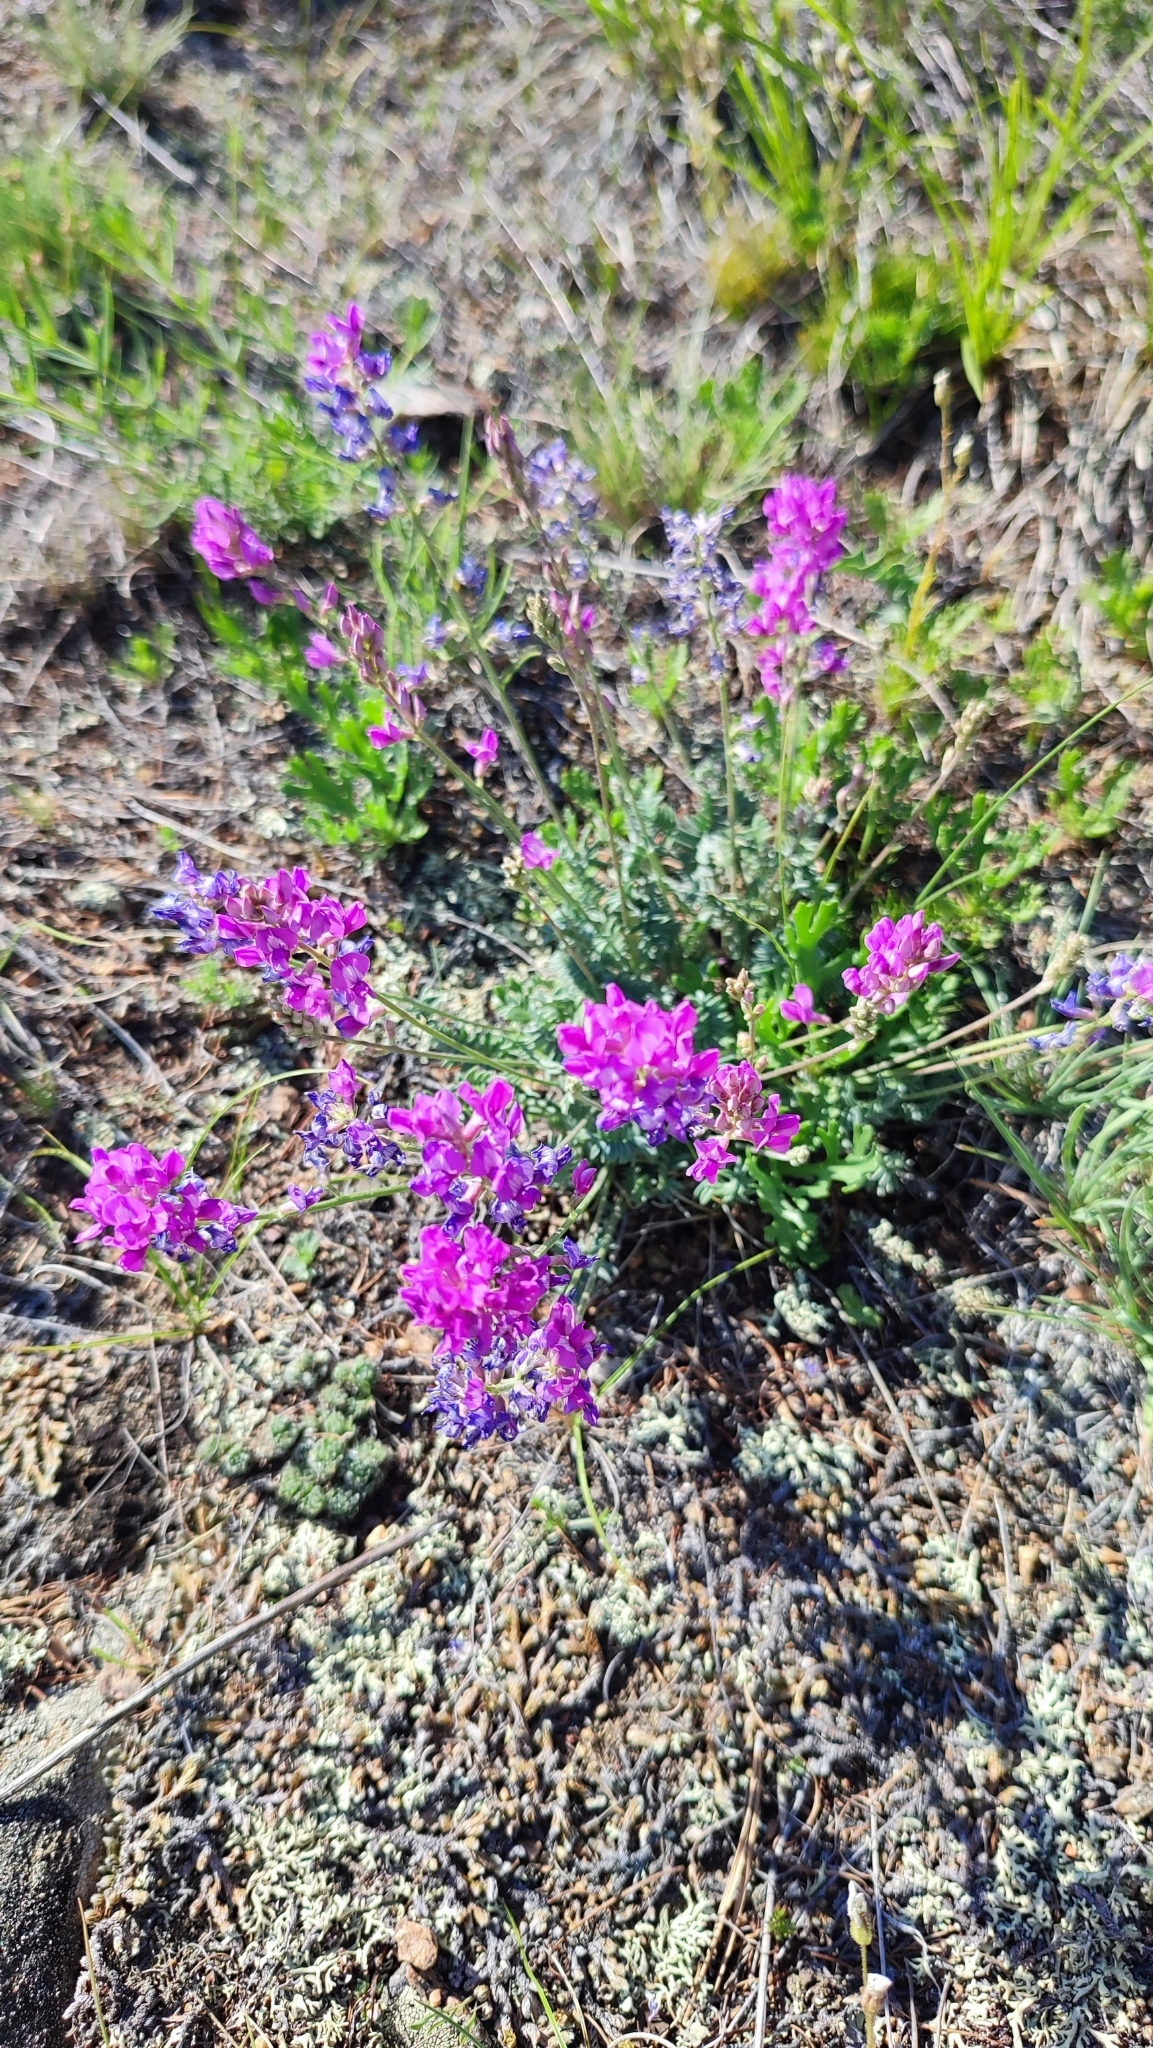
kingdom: Plantae
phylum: Tracheophyta
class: Magnoliopsida
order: Fabales
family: Fabaceae
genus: Oxytropis
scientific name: Oxytropis coerulea
